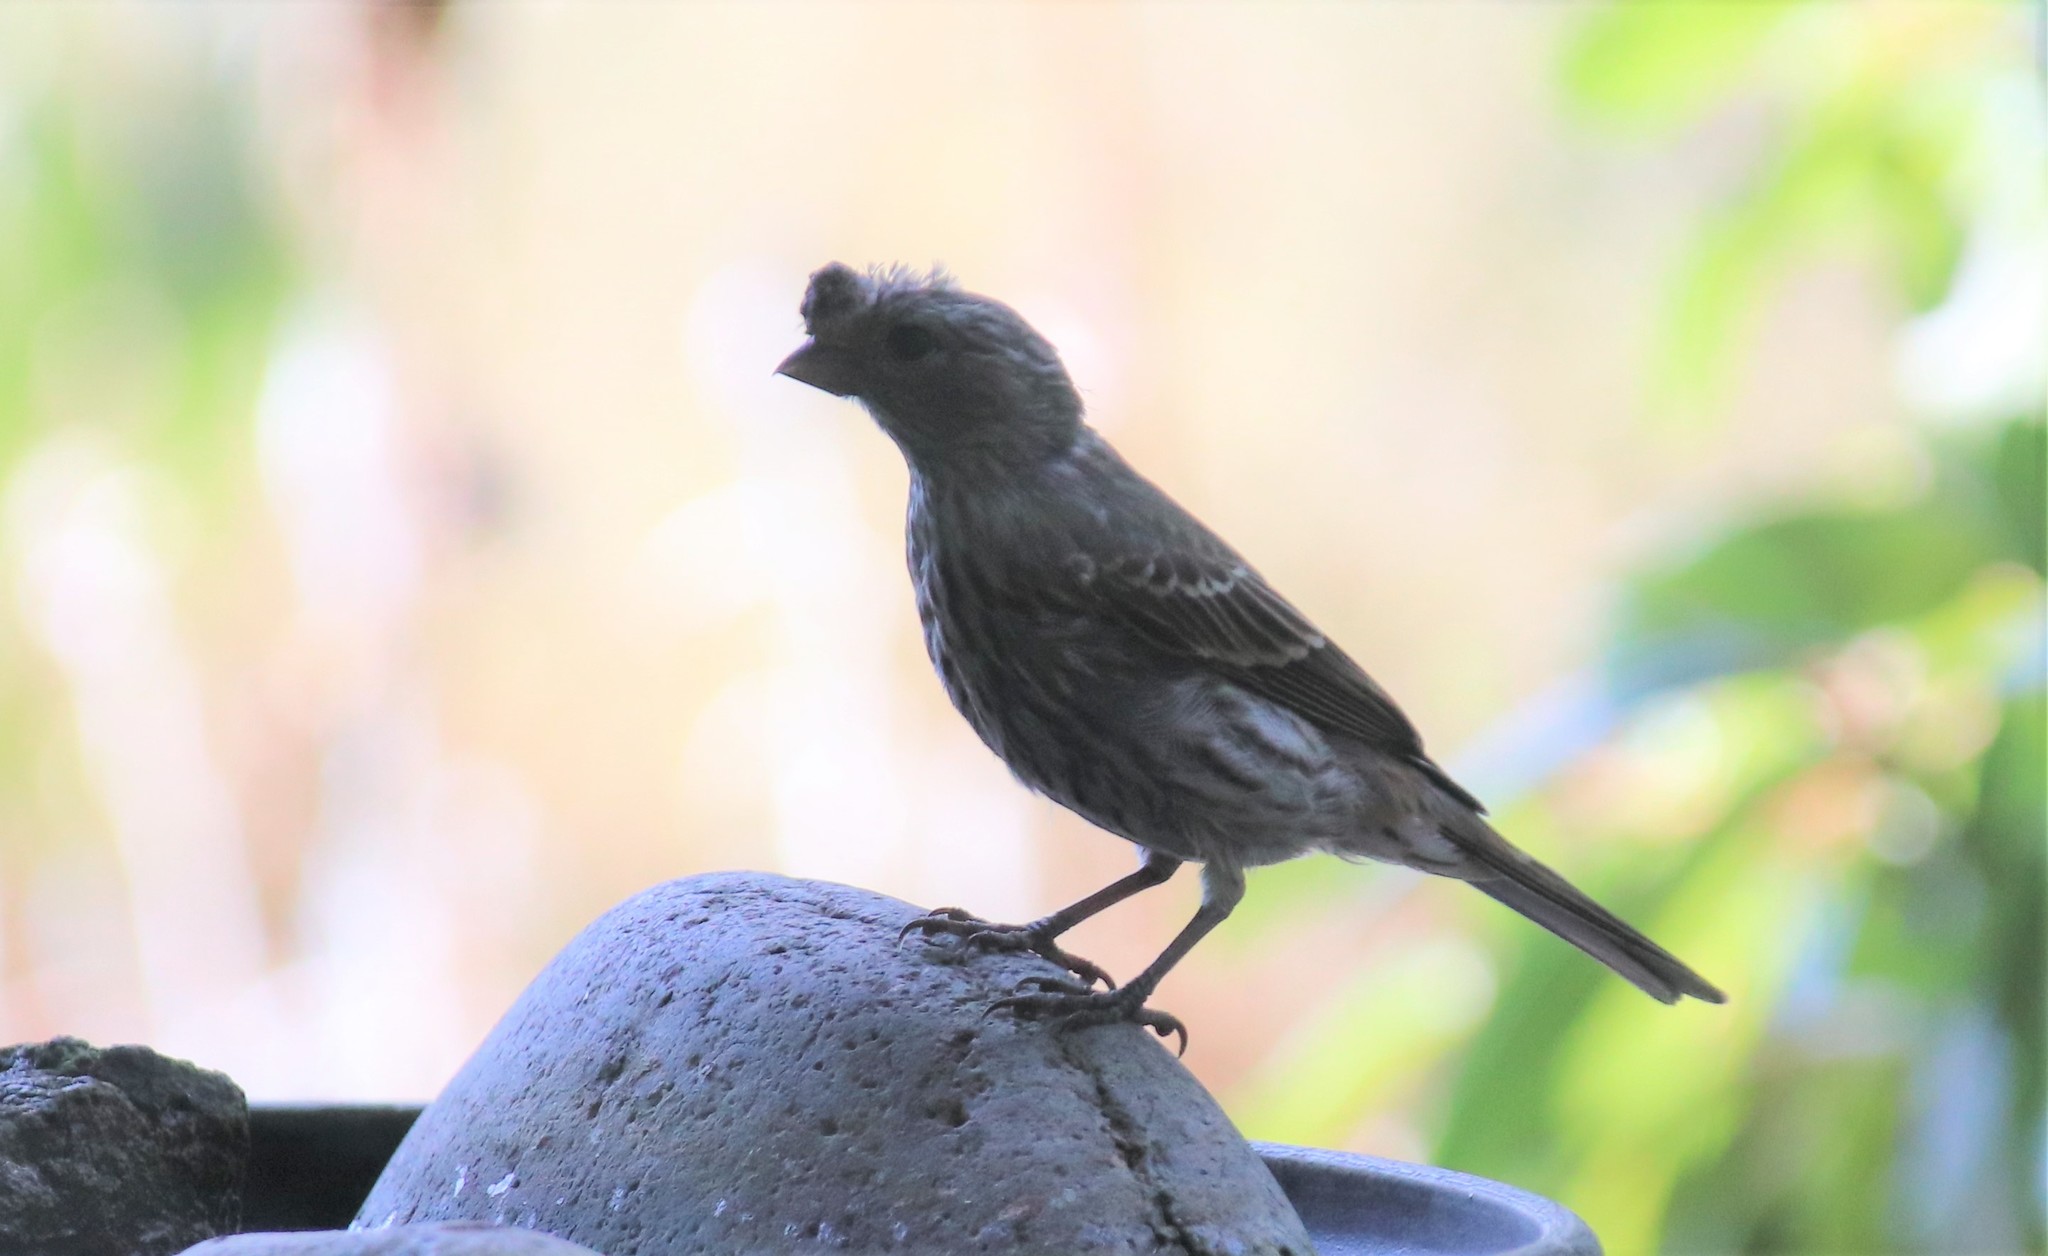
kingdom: Animalia
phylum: Chordata
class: Aves
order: Passeriformes
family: Fringillidae
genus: Haemorhous
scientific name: Haemorhous mexicanus
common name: House finch
